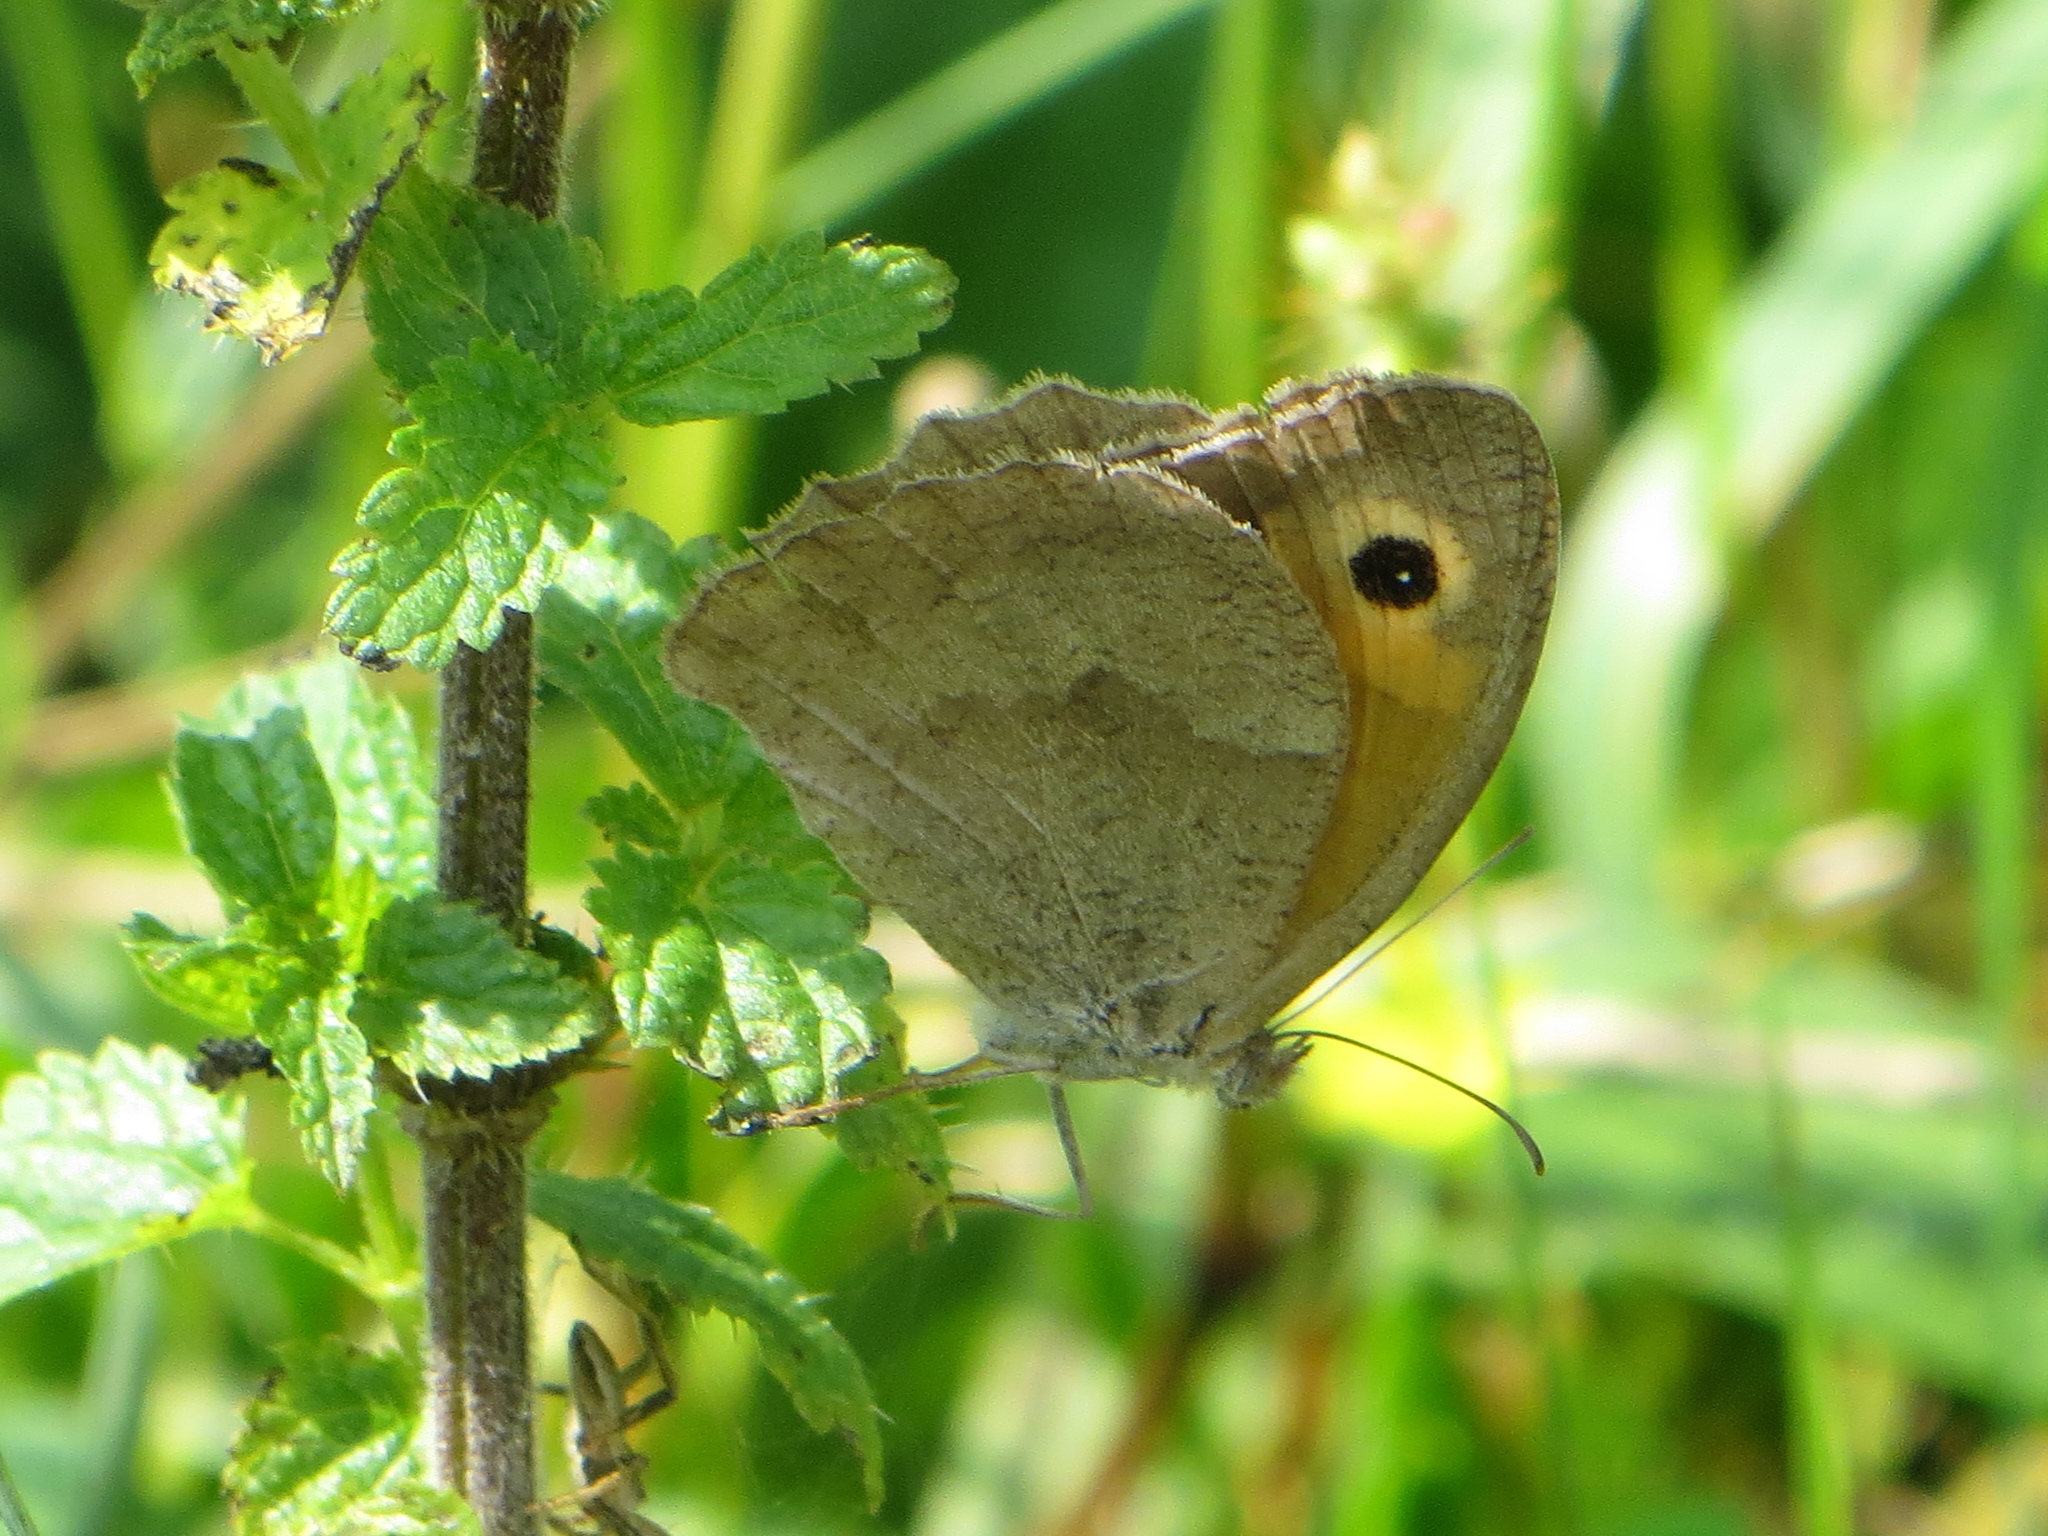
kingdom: Animalia
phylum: Arthropoda
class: Insecta
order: Lepidoptera
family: Nymphalidae
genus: Maniola
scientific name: Maniola jurtina
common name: Meadow brown
